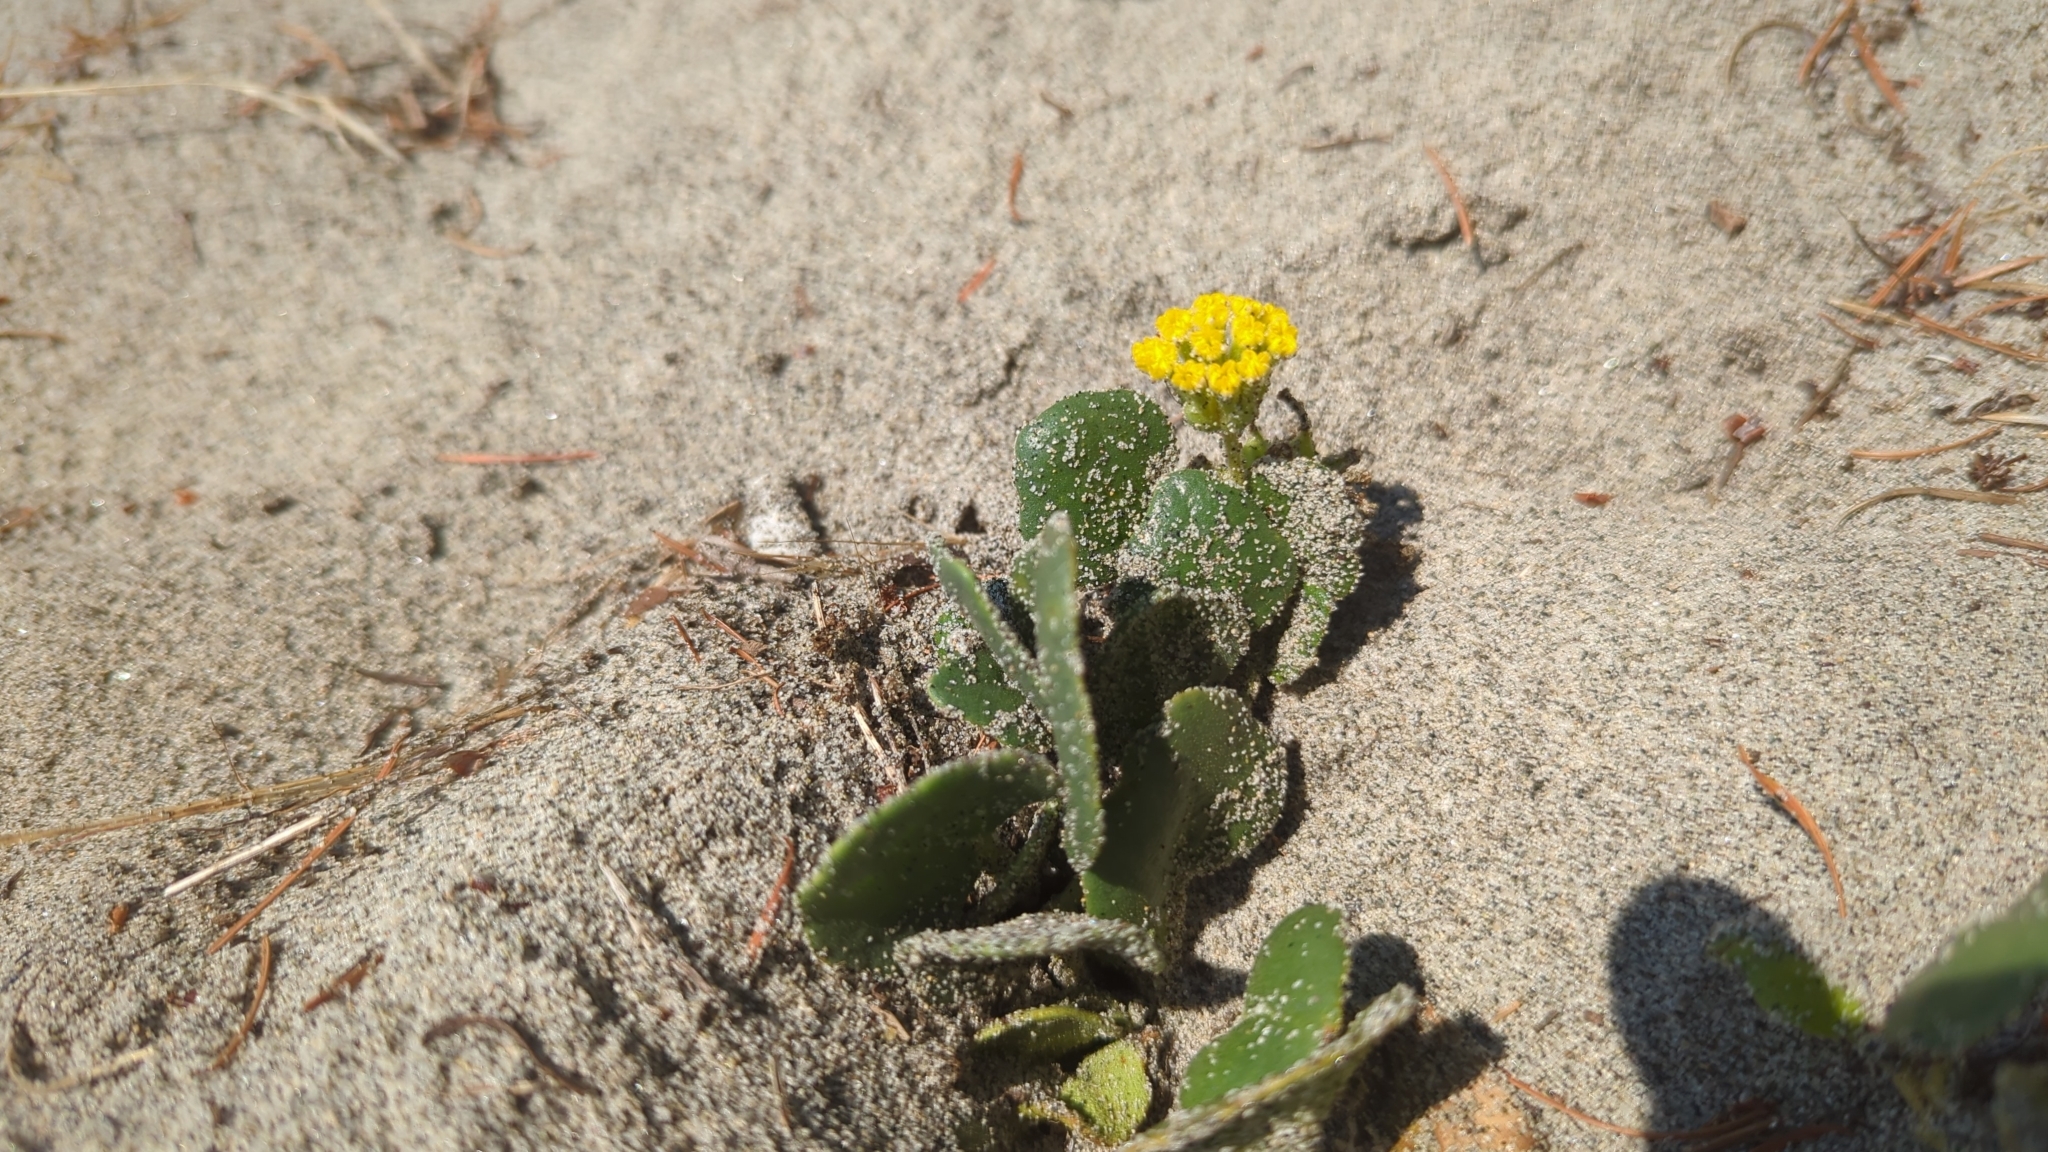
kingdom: Plantae
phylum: Tracheophyta
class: Magnoliopsida
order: Caryophyllales
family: Nyctaginaceae
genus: Abronia
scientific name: Abronia latifolia
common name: Yellow sand-verbena
